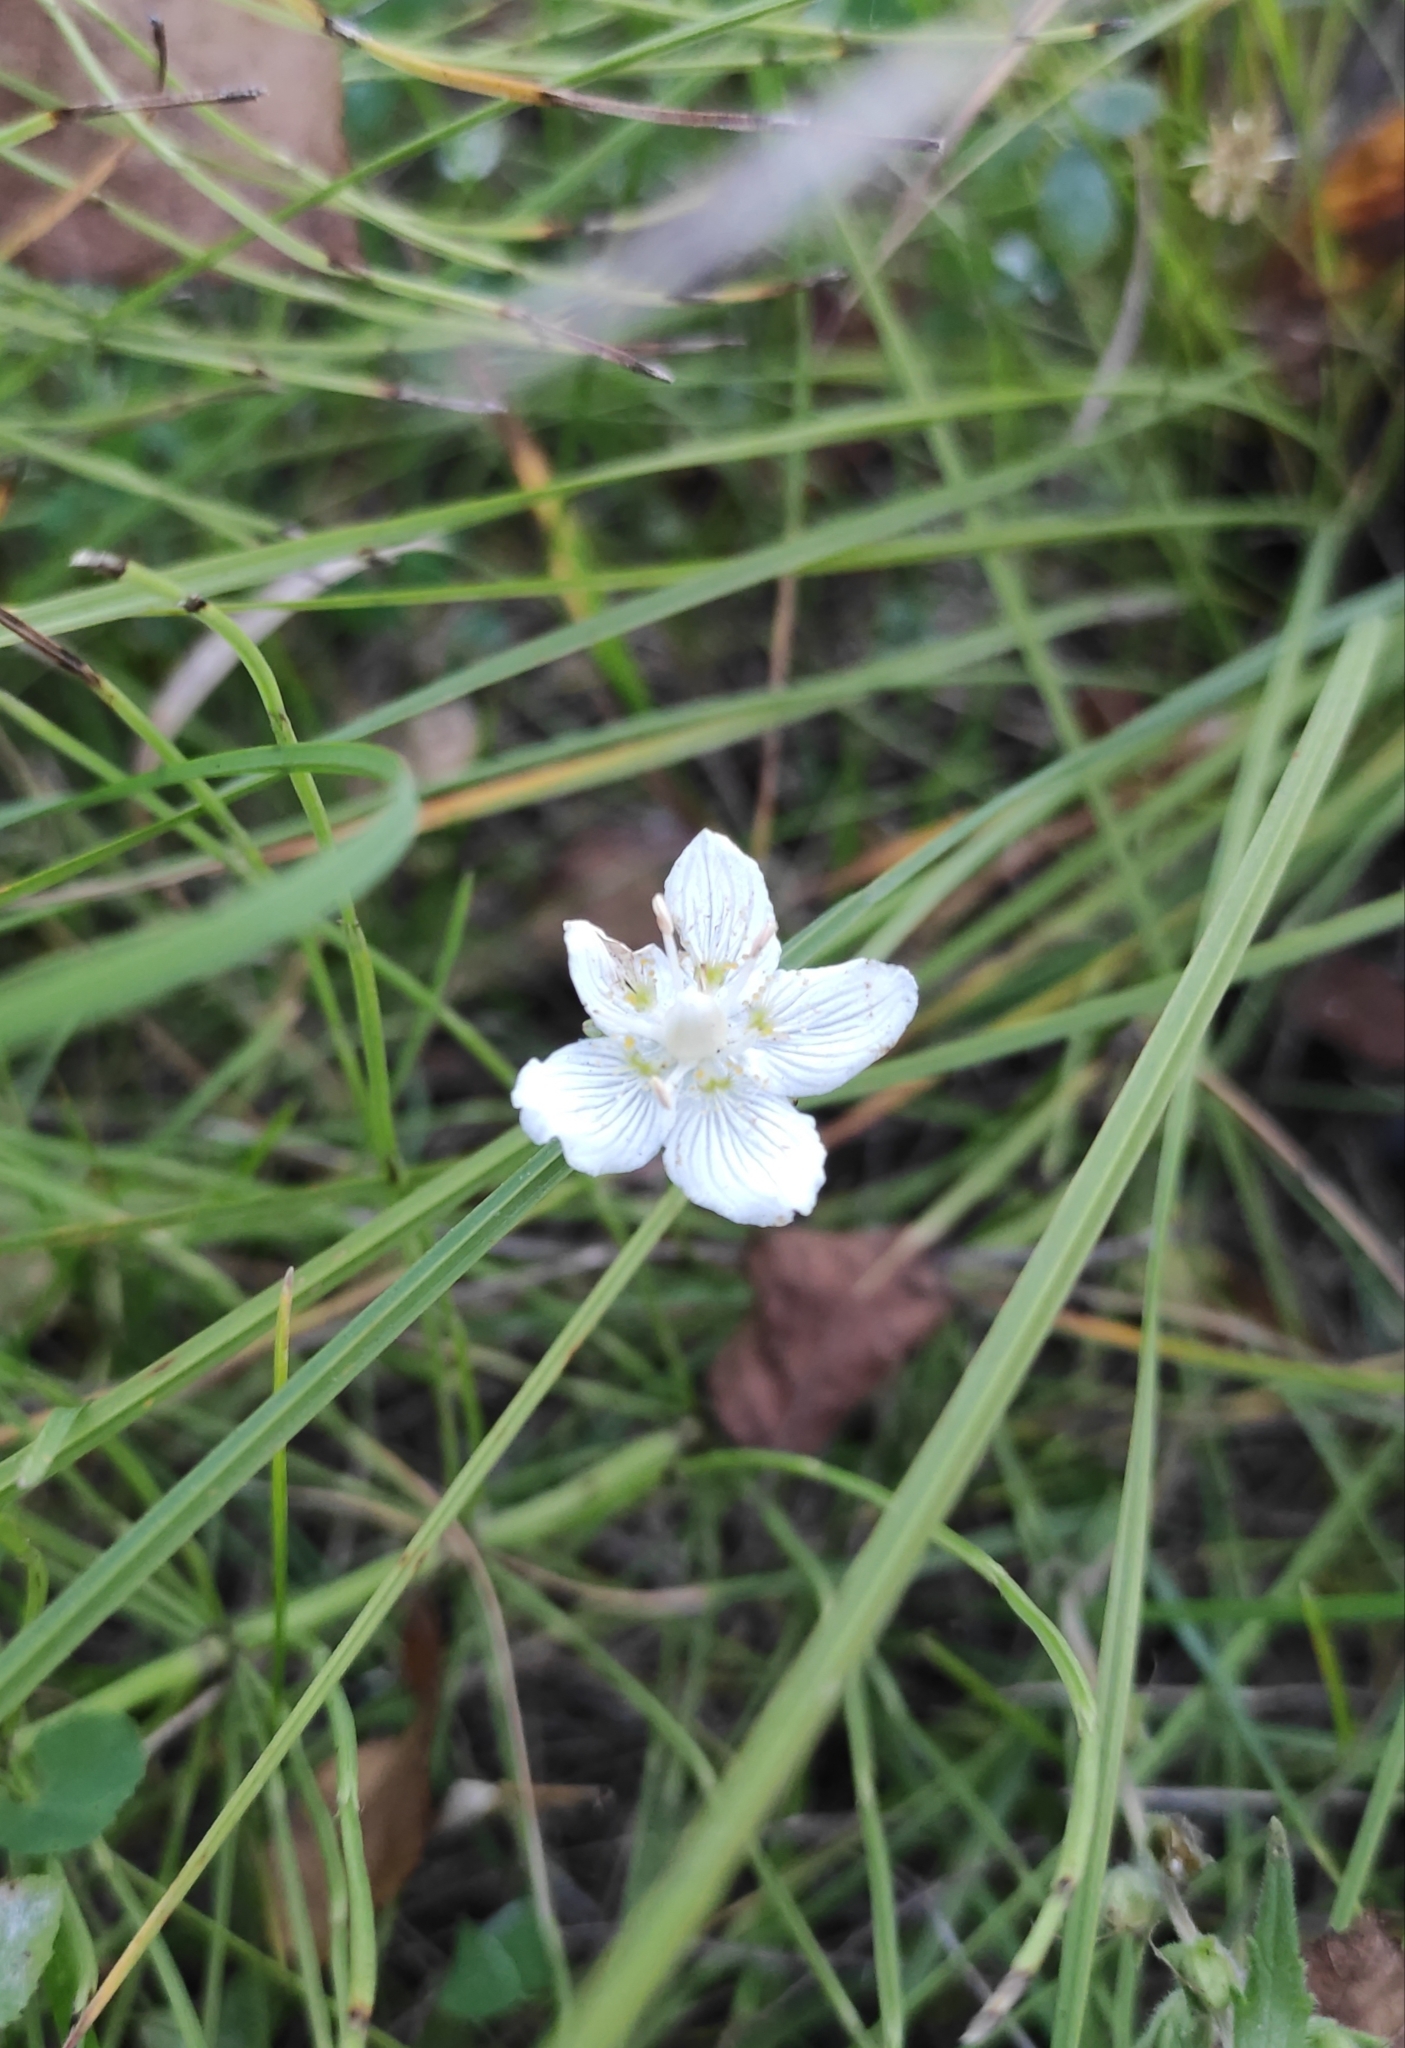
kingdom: Plantae
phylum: Tracheophyta
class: Magnoliopsida
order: Celastrales
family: Parnassiaceae
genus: Parnassia
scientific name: Parnassia palustris
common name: Grass-of-parnassus
